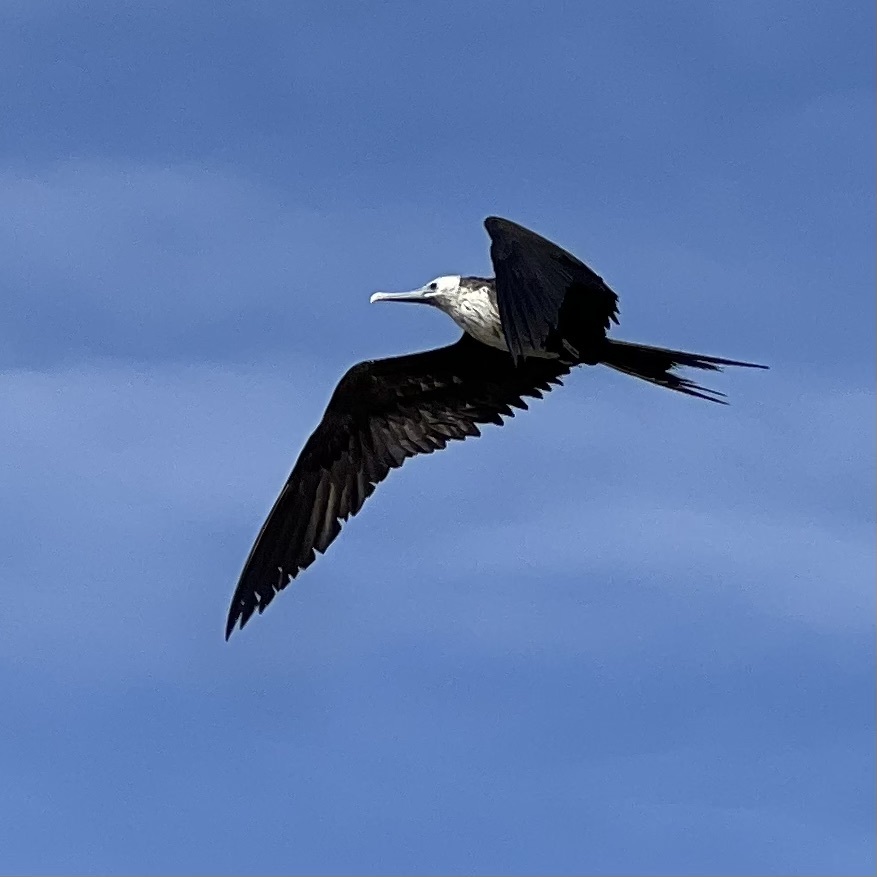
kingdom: Animalia
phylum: Chordata
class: Aves
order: Suliformes
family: Fregatidae
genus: Fregata
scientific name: Fregata magnificens
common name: Magnificent frigatebird
